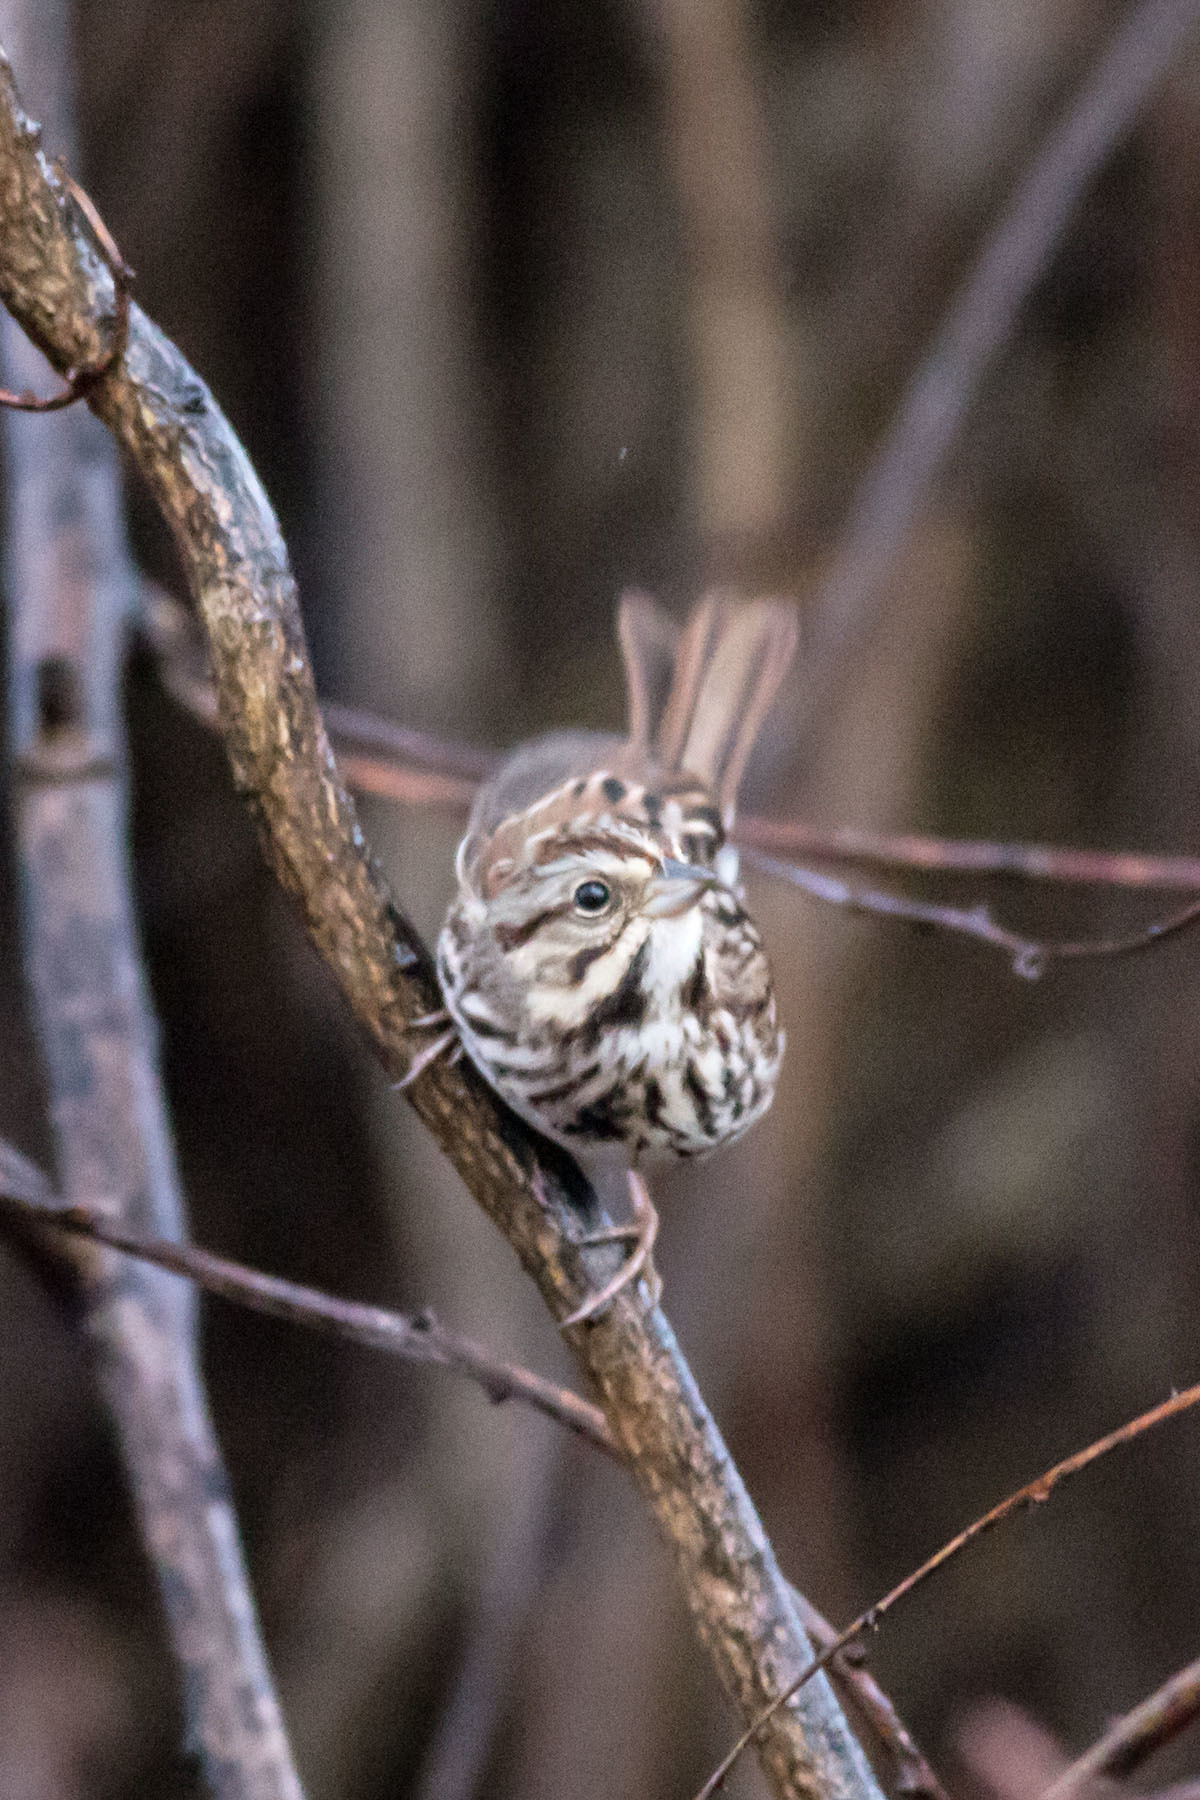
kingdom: Animalia
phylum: Chordata
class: Aves
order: Passeriformes
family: Passerellidae
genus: Melospiza
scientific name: Melospiza melodia
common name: Song sparrow
